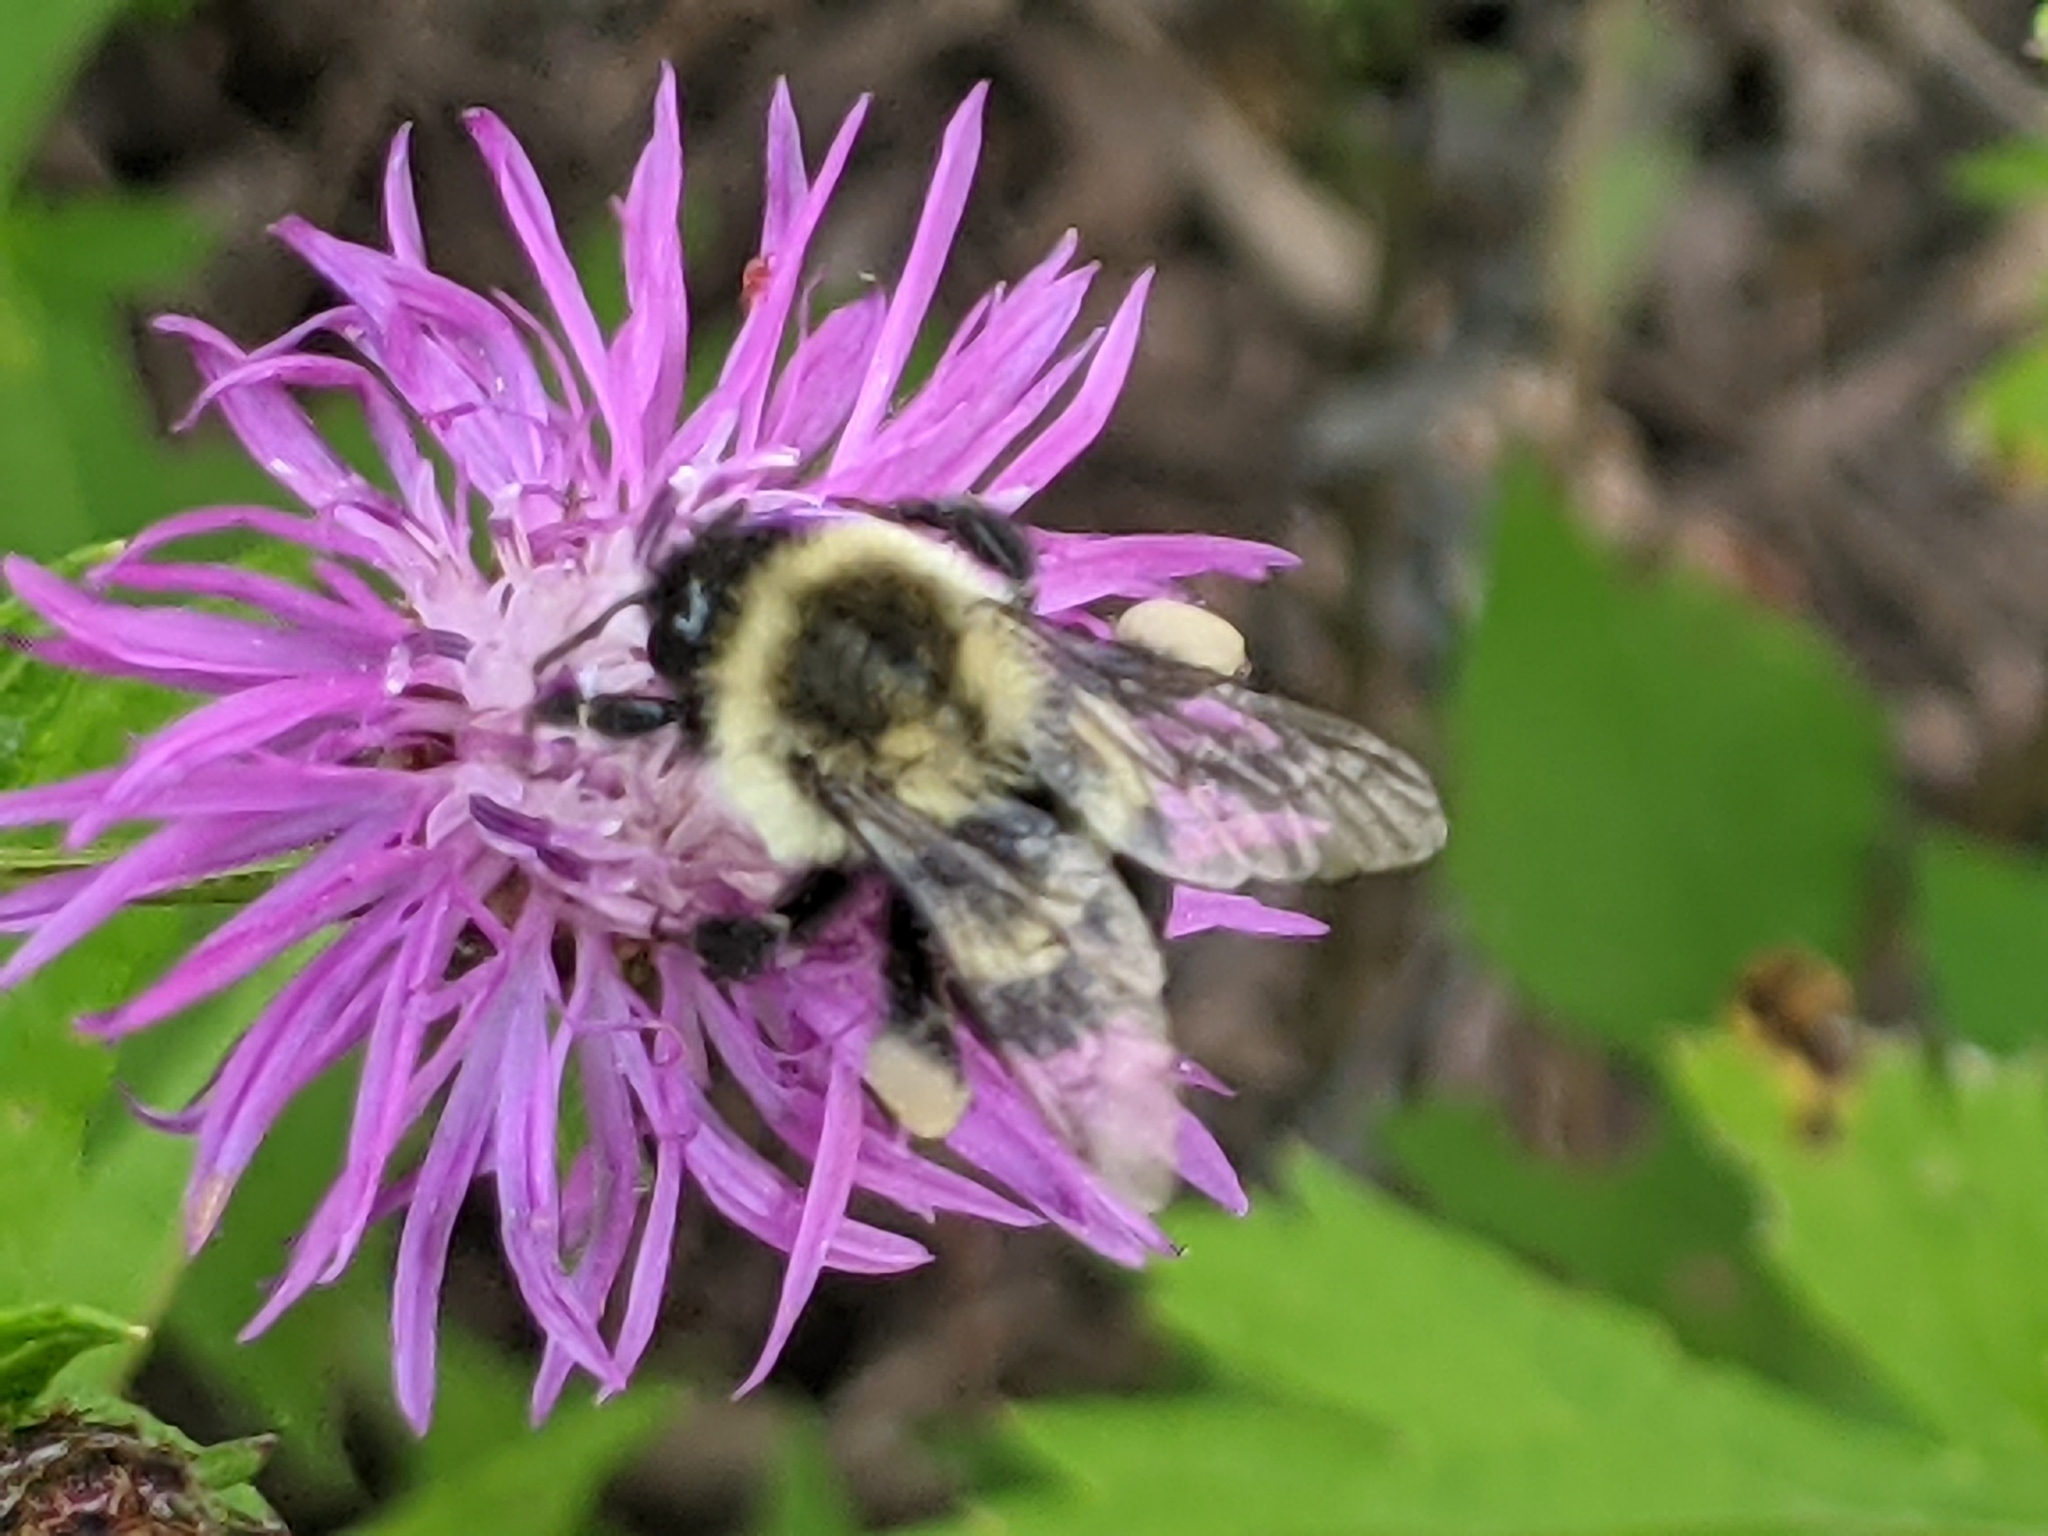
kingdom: Animalia
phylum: Arthropoda
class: Insecta
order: Hymenoptera
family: Apidae
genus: Bombus
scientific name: Bombus impatiens
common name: Common eastern bumble bee
